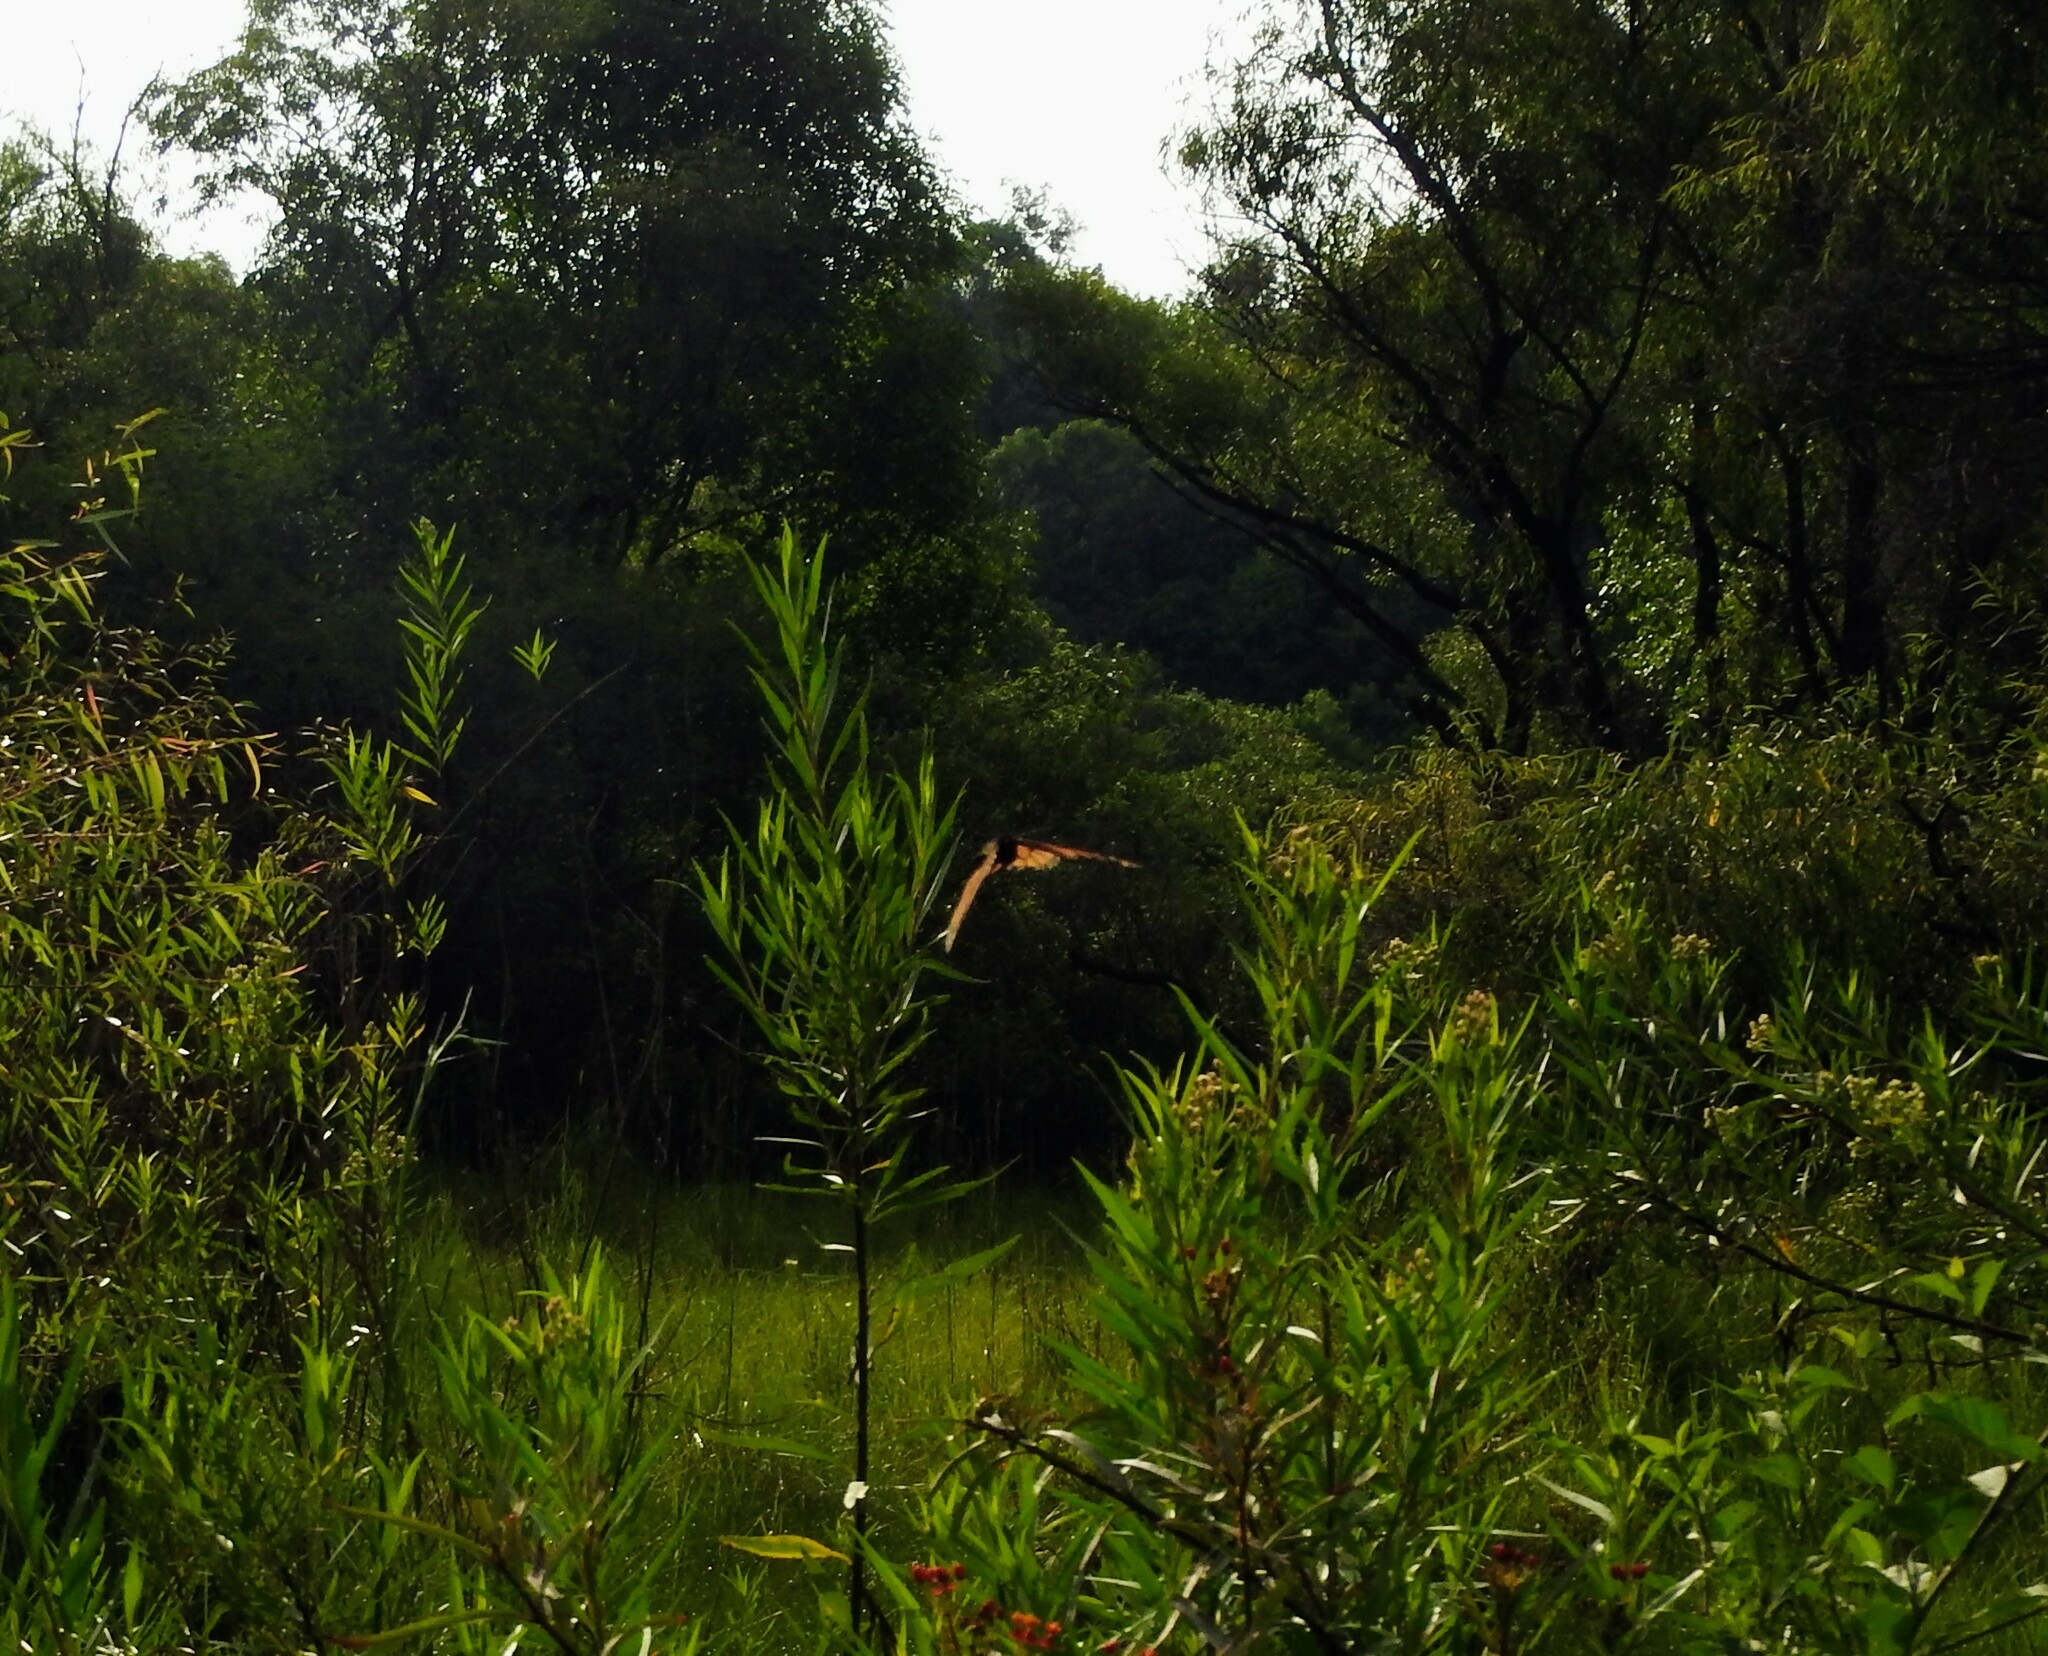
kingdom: Animalia
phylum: Arthropoda
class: Insecta
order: Lepidoptera
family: Nymphalidae
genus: Danaus
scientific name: Danaus plexippus
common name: Monarch
